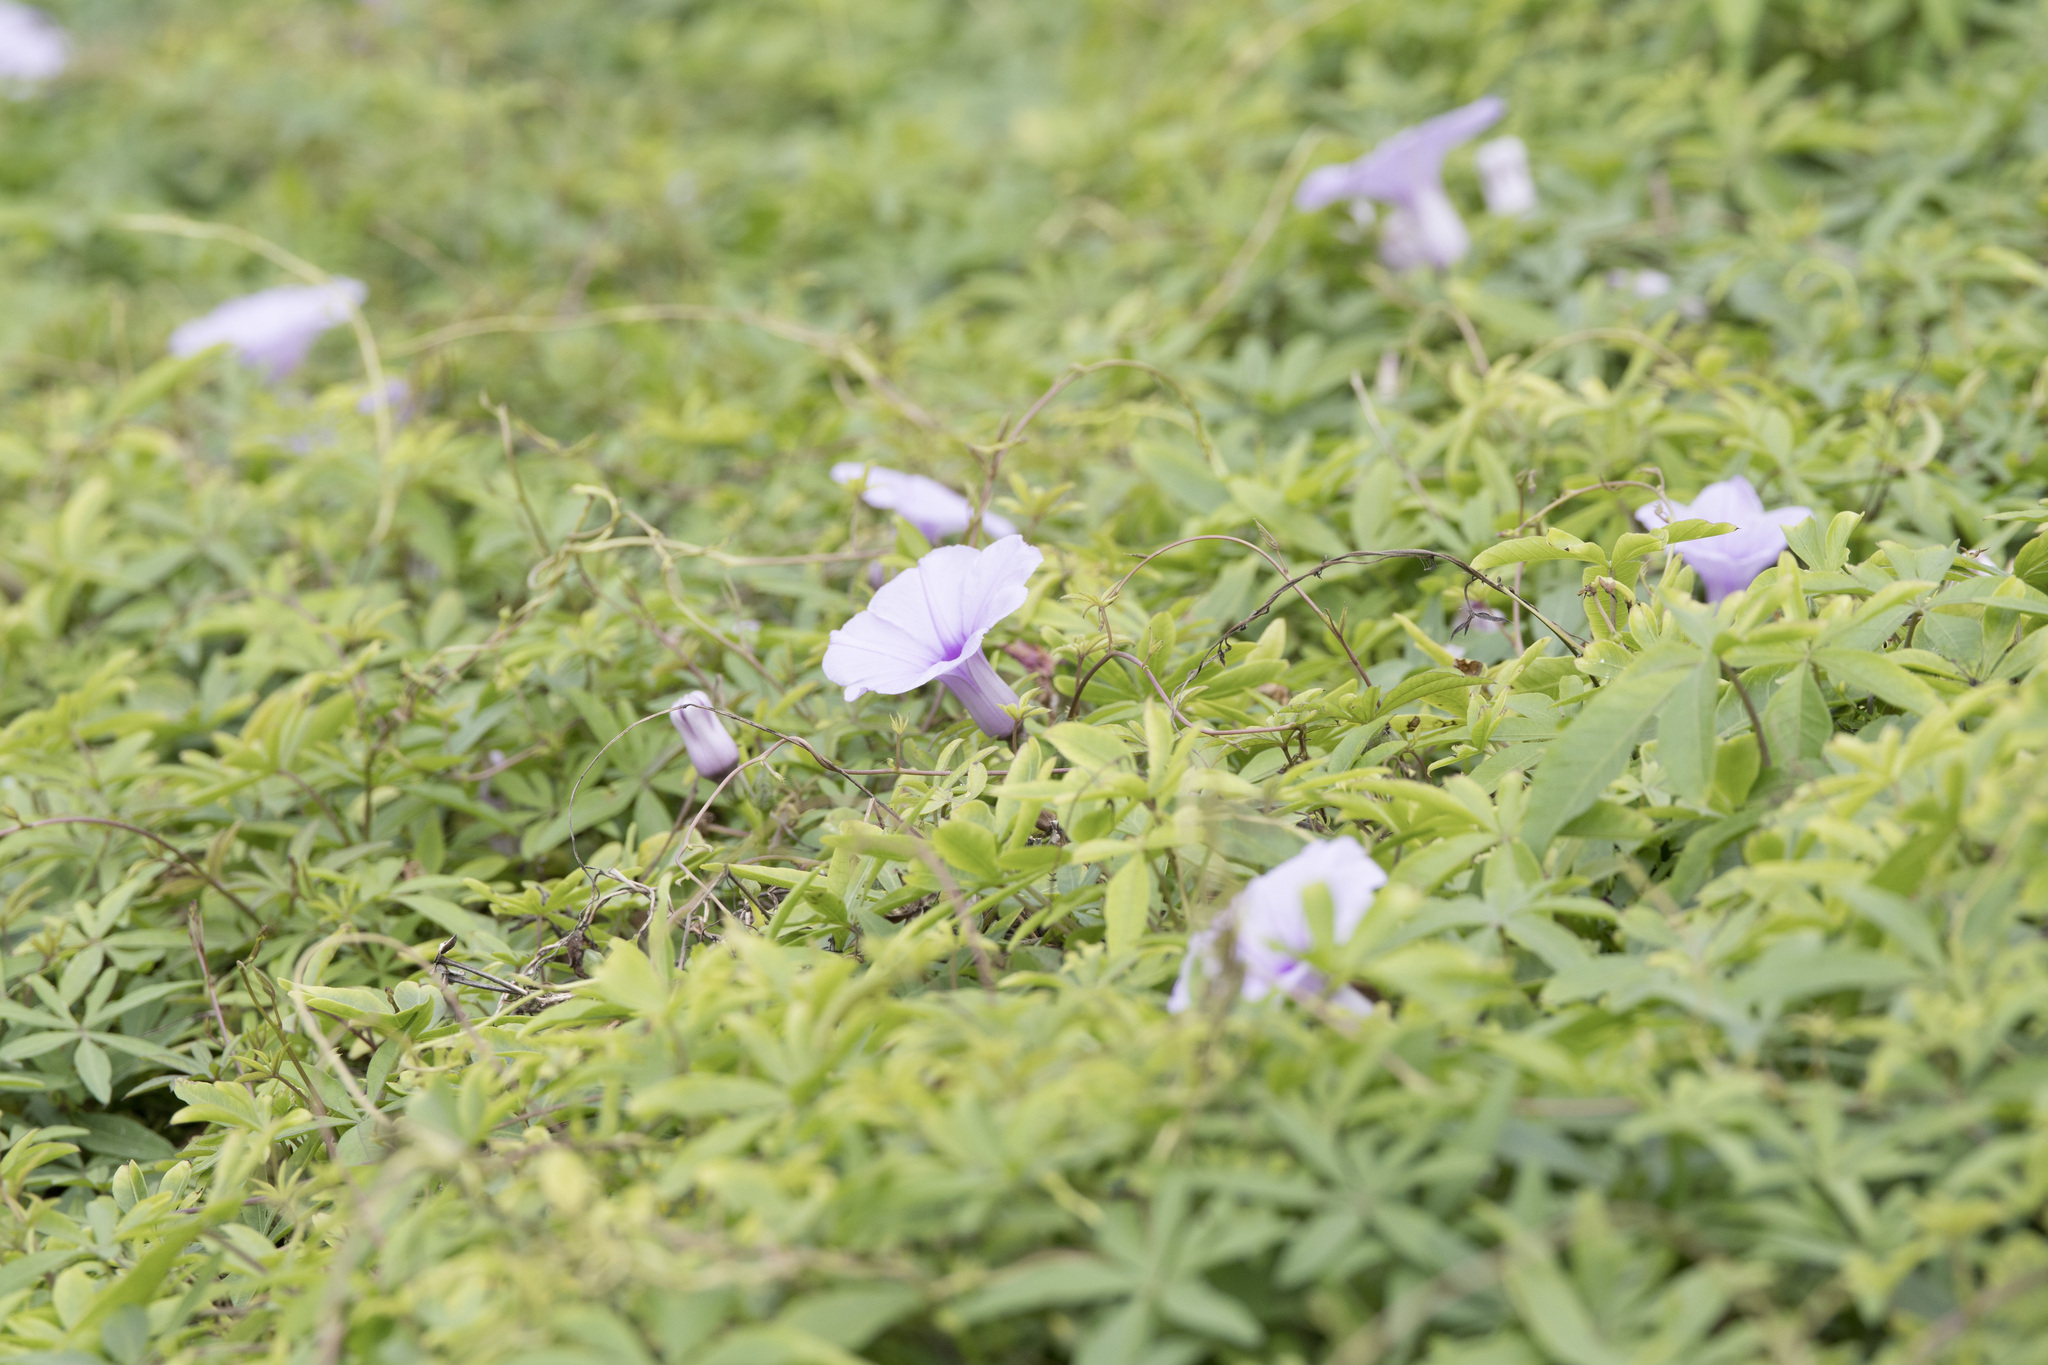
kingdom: Plantae
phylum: Tracheophyta
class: Magnoliopsida
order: Solanales
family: Convolvulaceae
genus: Ipomoea
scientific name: Ipomoea cairica
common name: Mile a minute vine
